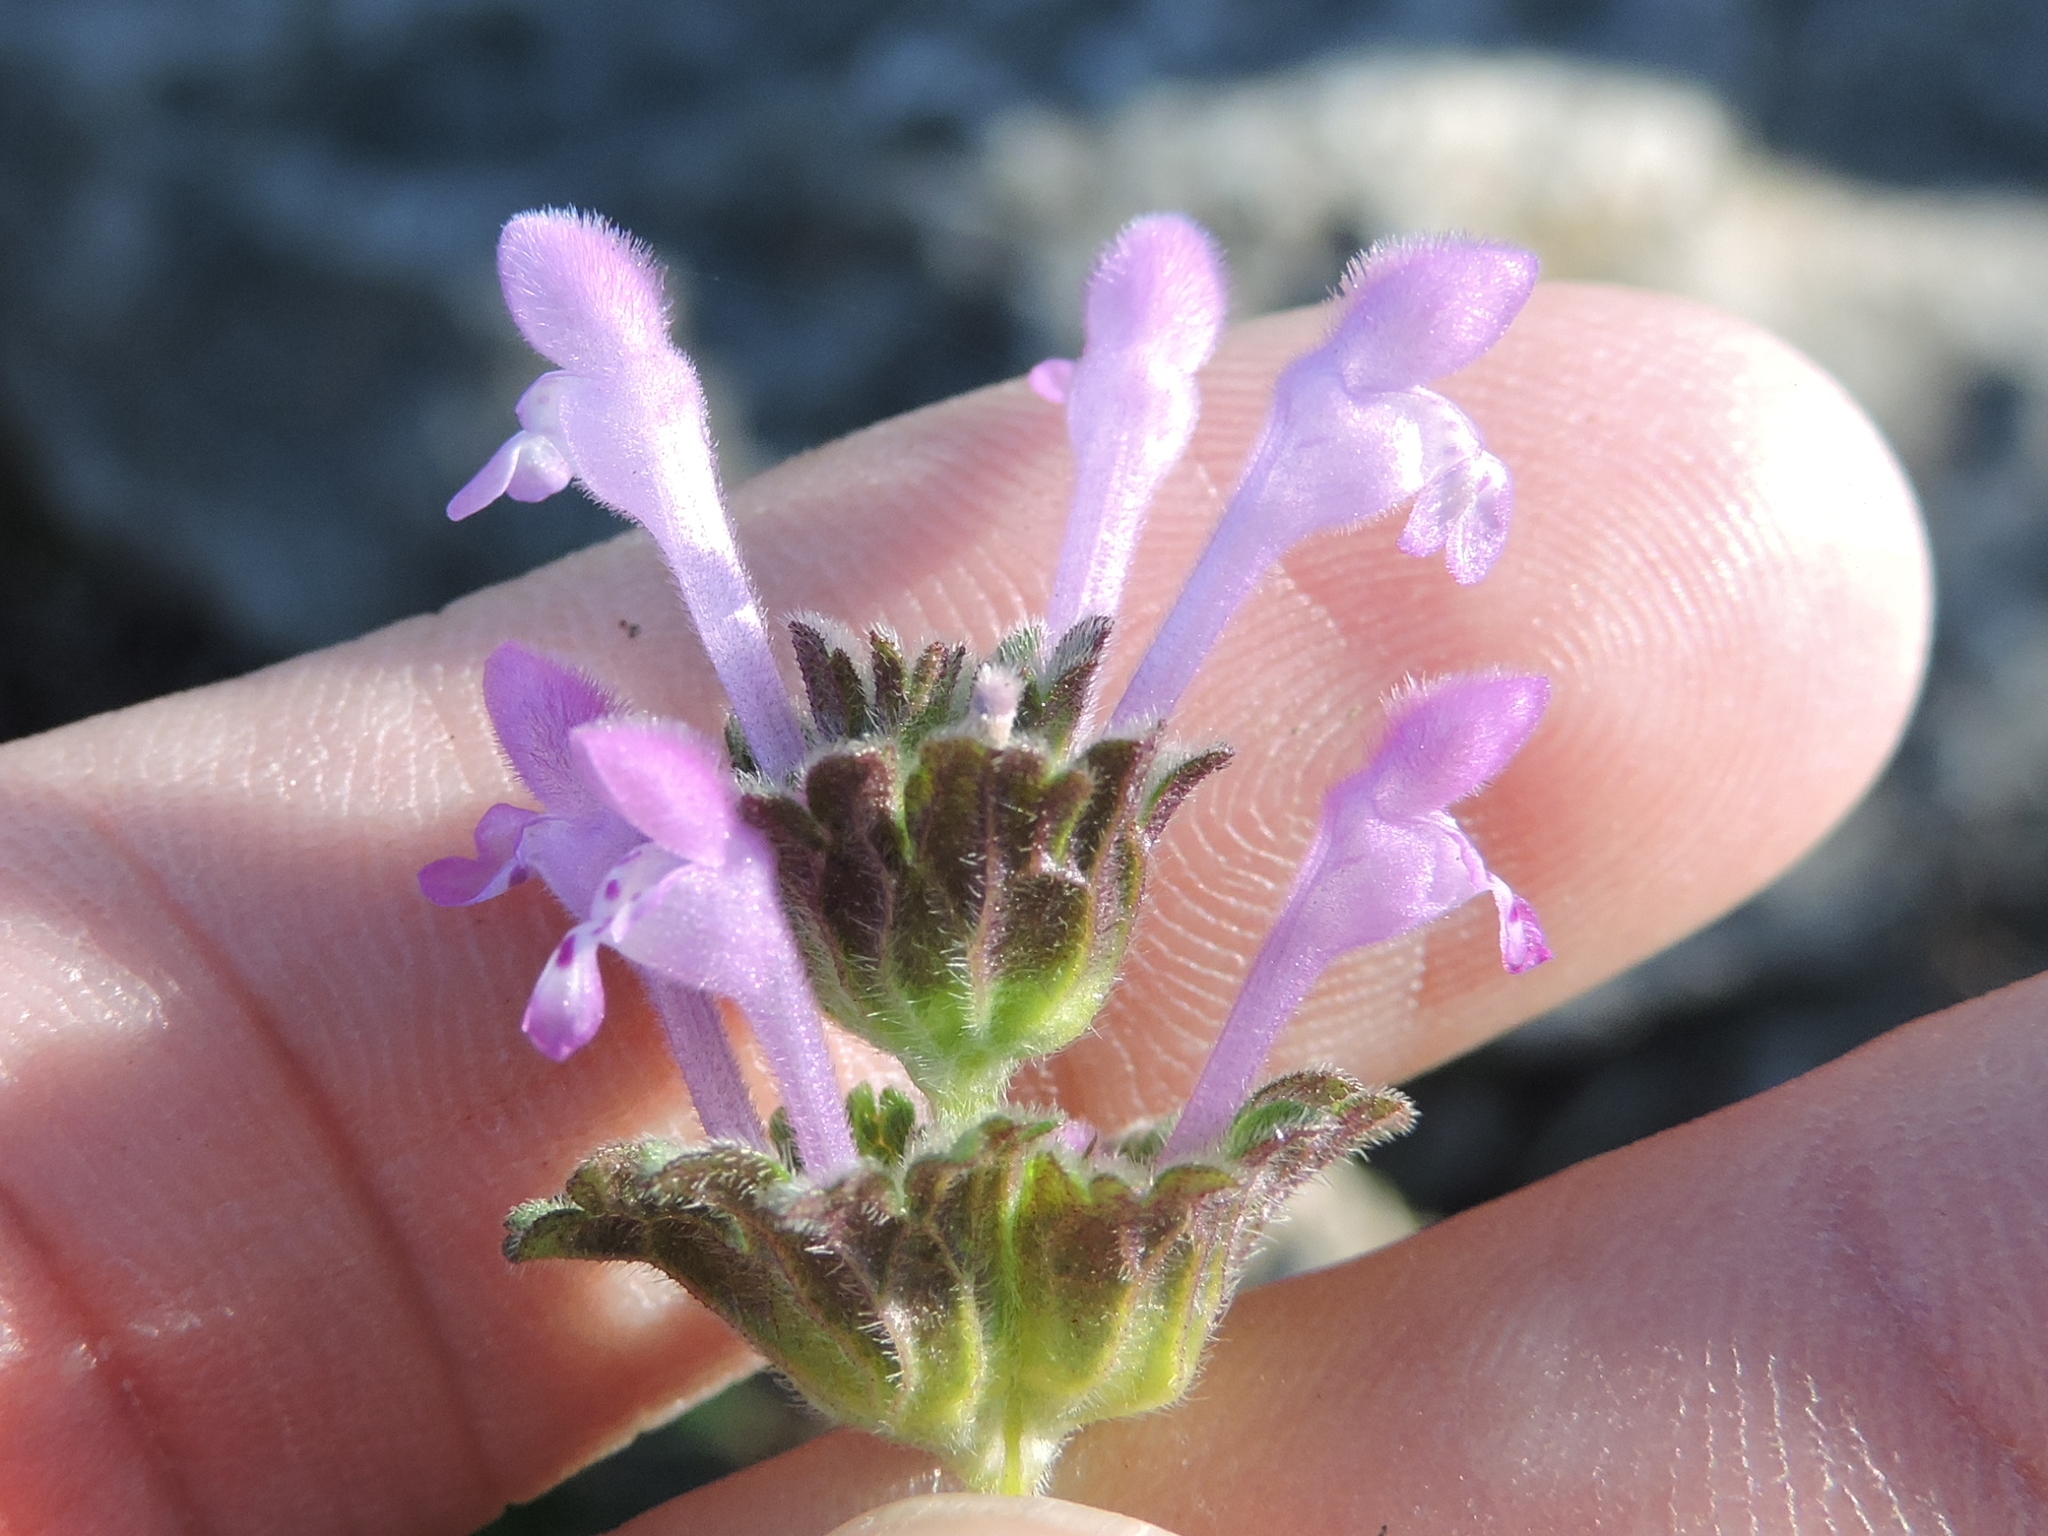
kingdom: Plantae
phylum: Tracheophyta
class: Magnoliopsida
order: Lamiales
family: Lamiaceae
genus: Lamium
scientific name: Lamium amplexicaule
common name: Henbit dead-nettle
